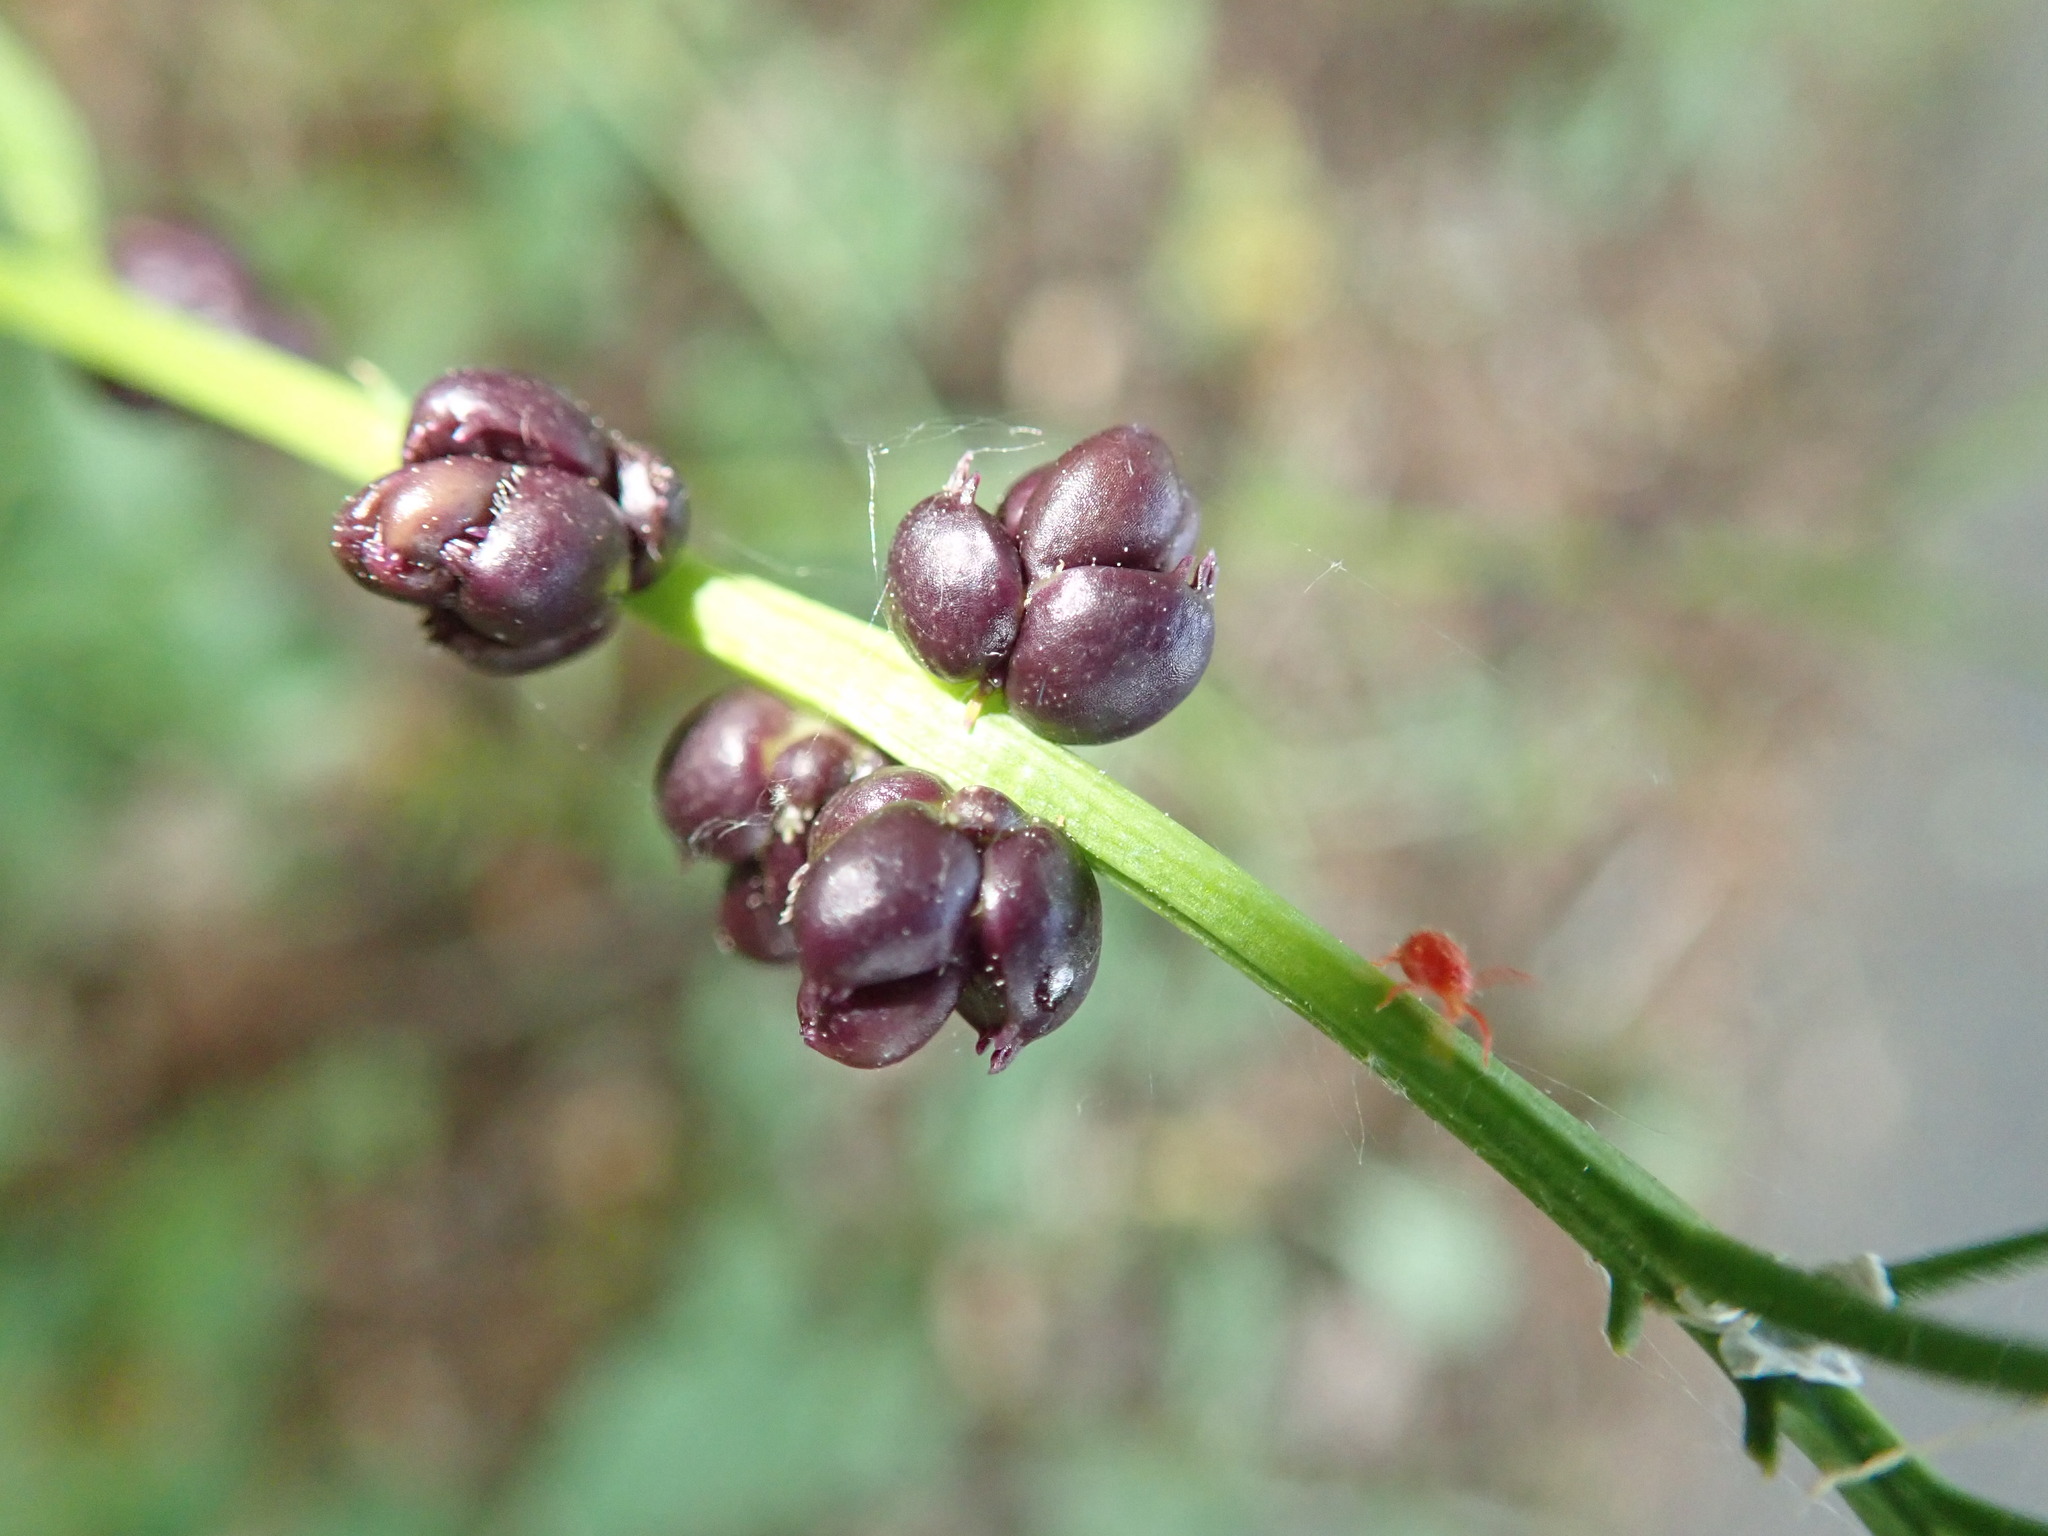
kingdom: Plantae
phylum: Tracheophyta
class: Magnoliopsida
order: Brassicales
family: Brassicaceae
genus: Cardamine
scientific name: Cardamine bulbifera
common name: Coralroot bittercress
